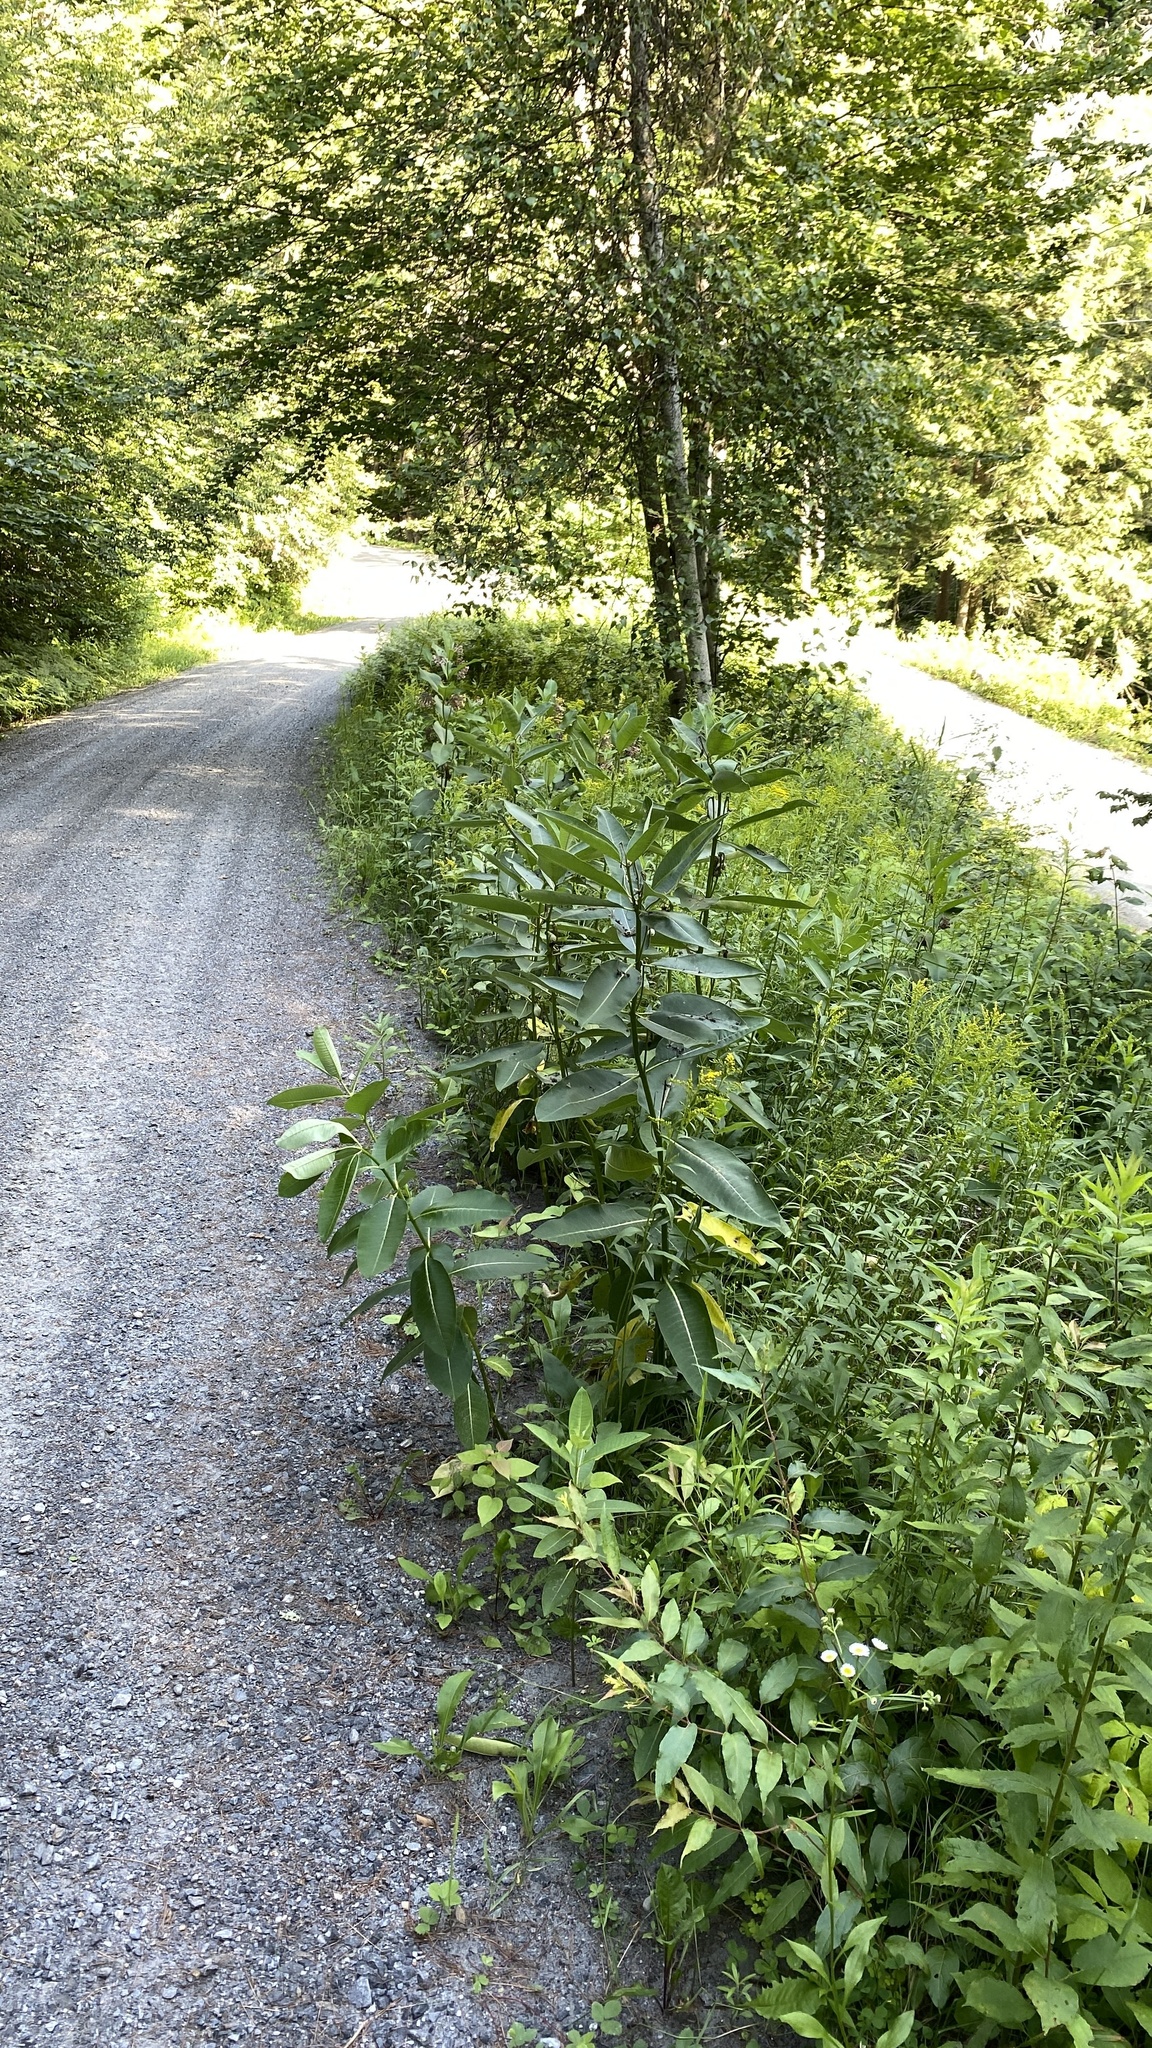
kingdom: Plantae
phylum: Tracheophyta
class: Magnoliopsida
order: Gentianales
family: Apocynaceae
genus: Asclepias
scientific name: Asclepias syriaca
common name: Common milkweed
